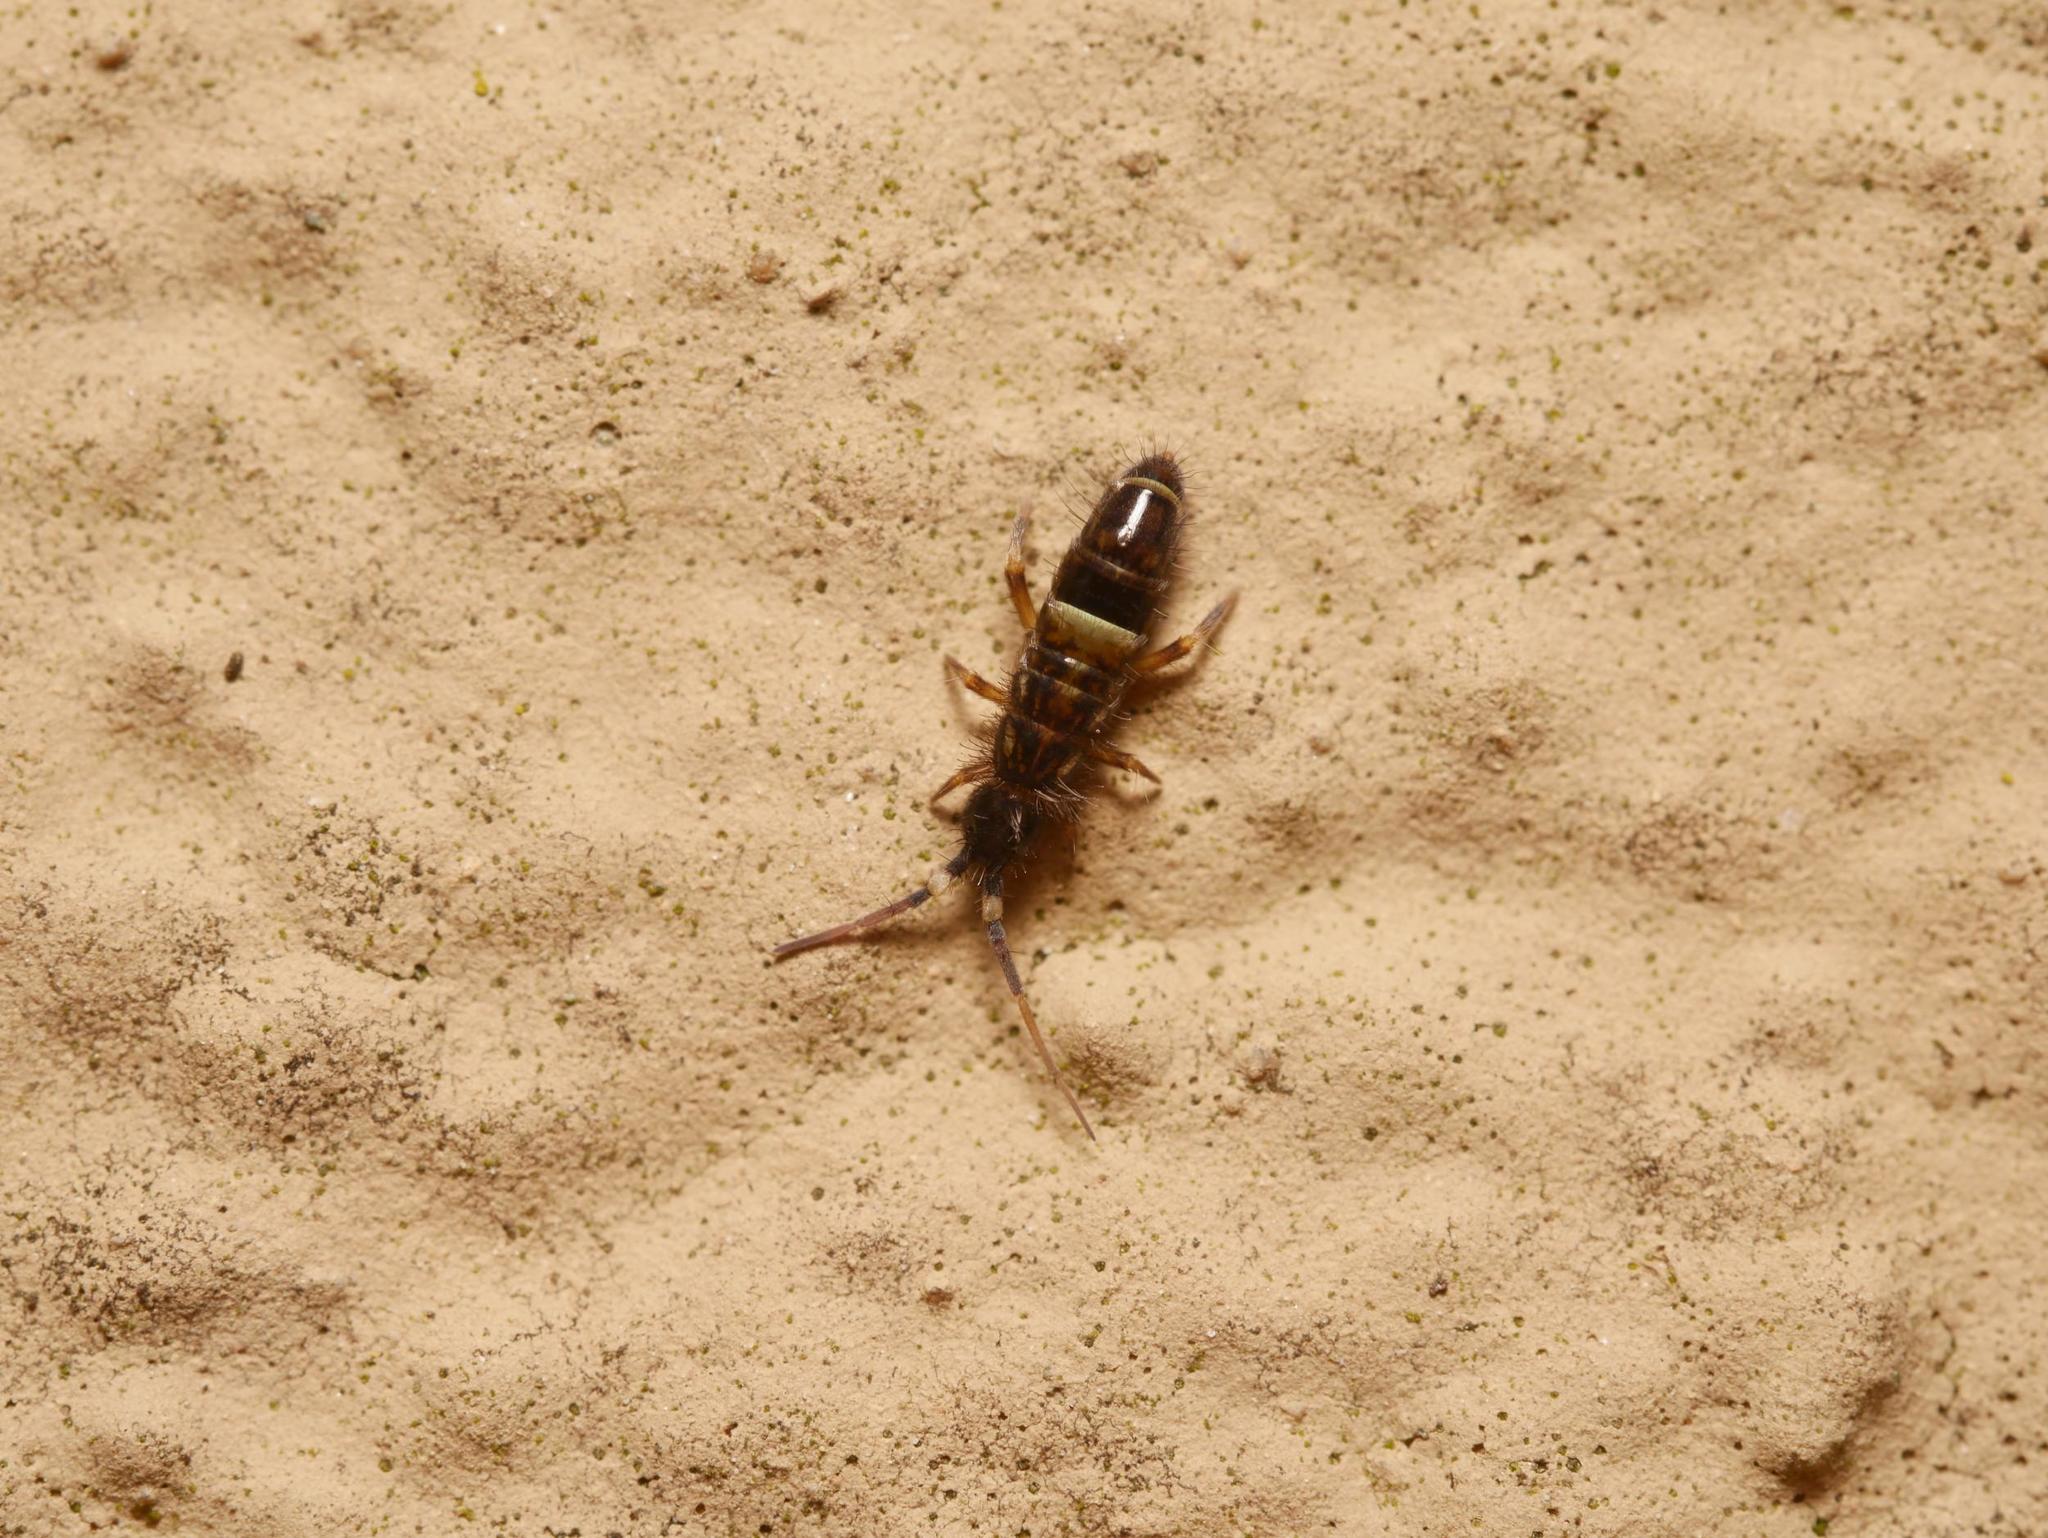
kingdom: Animalia
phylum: Arthropoda
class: Collembola
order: Entomobryomorpha
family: Orchesellidae
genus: Orchesella
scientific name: Orchesella cincta
